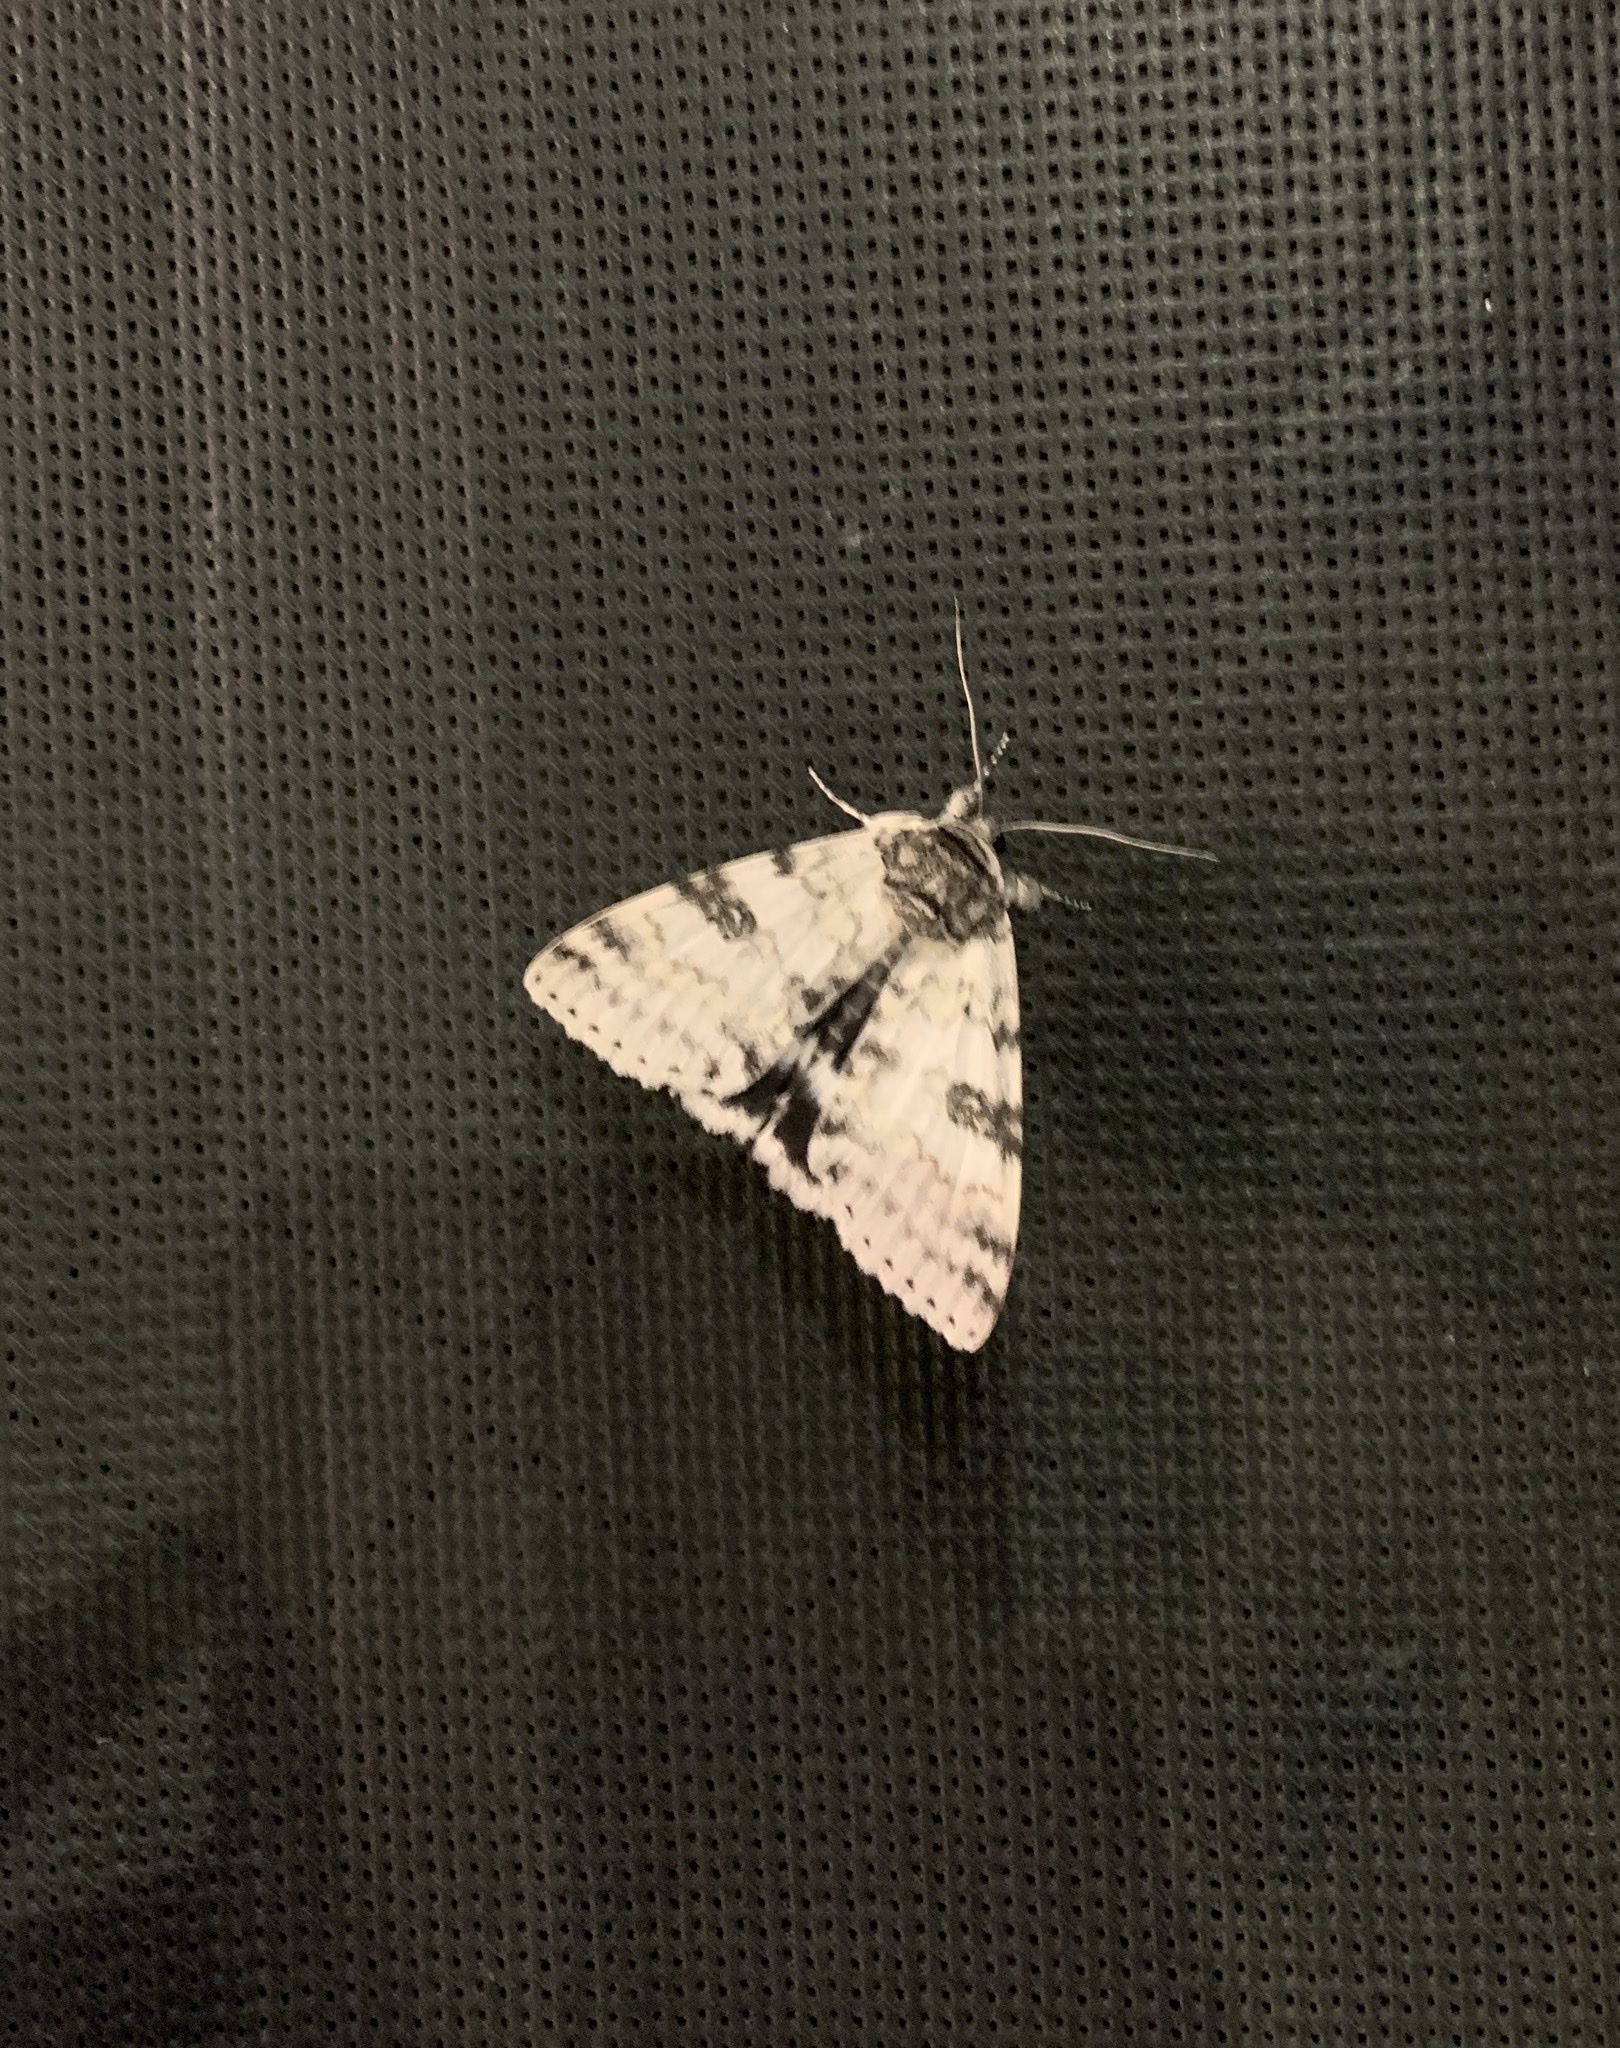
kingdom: Animalia
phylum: Arthropoda
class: Insecta
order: Lepidoptera
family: Erebidae
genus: Catocala
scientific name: Catocala relicta
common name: White underwing
